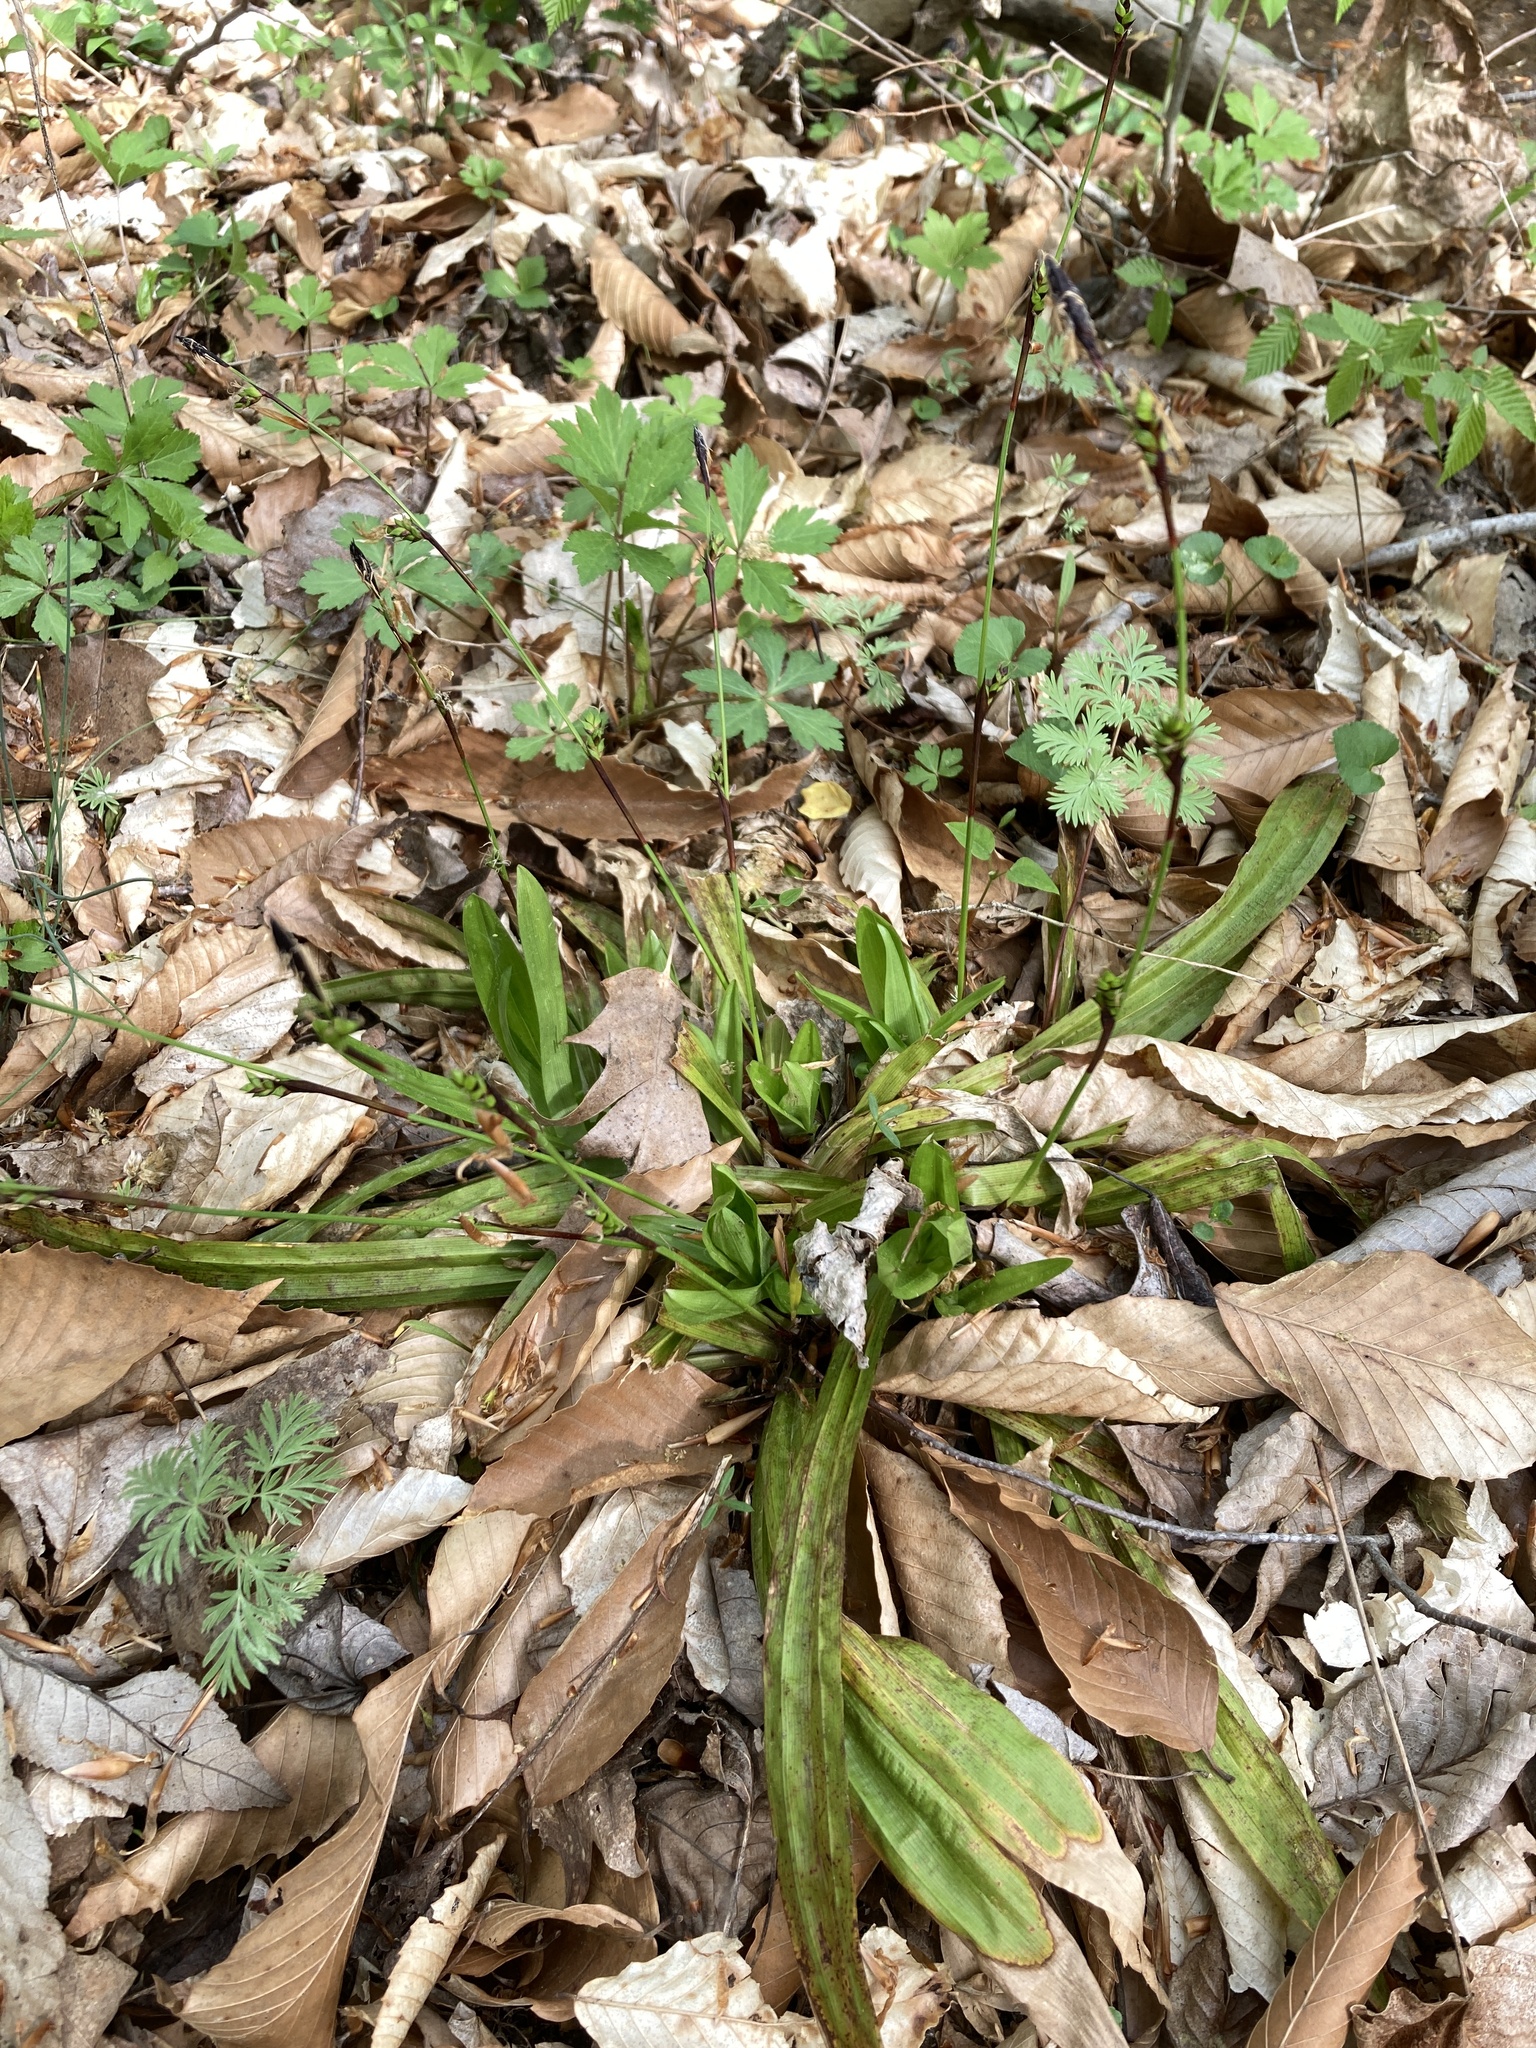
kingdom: Plantae
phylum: Tracheophyta
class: Liliopsida
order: Poales
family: Cyperaceae
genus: Carex
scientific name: Carex plantaginea
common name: Plantain-leaved sedge
